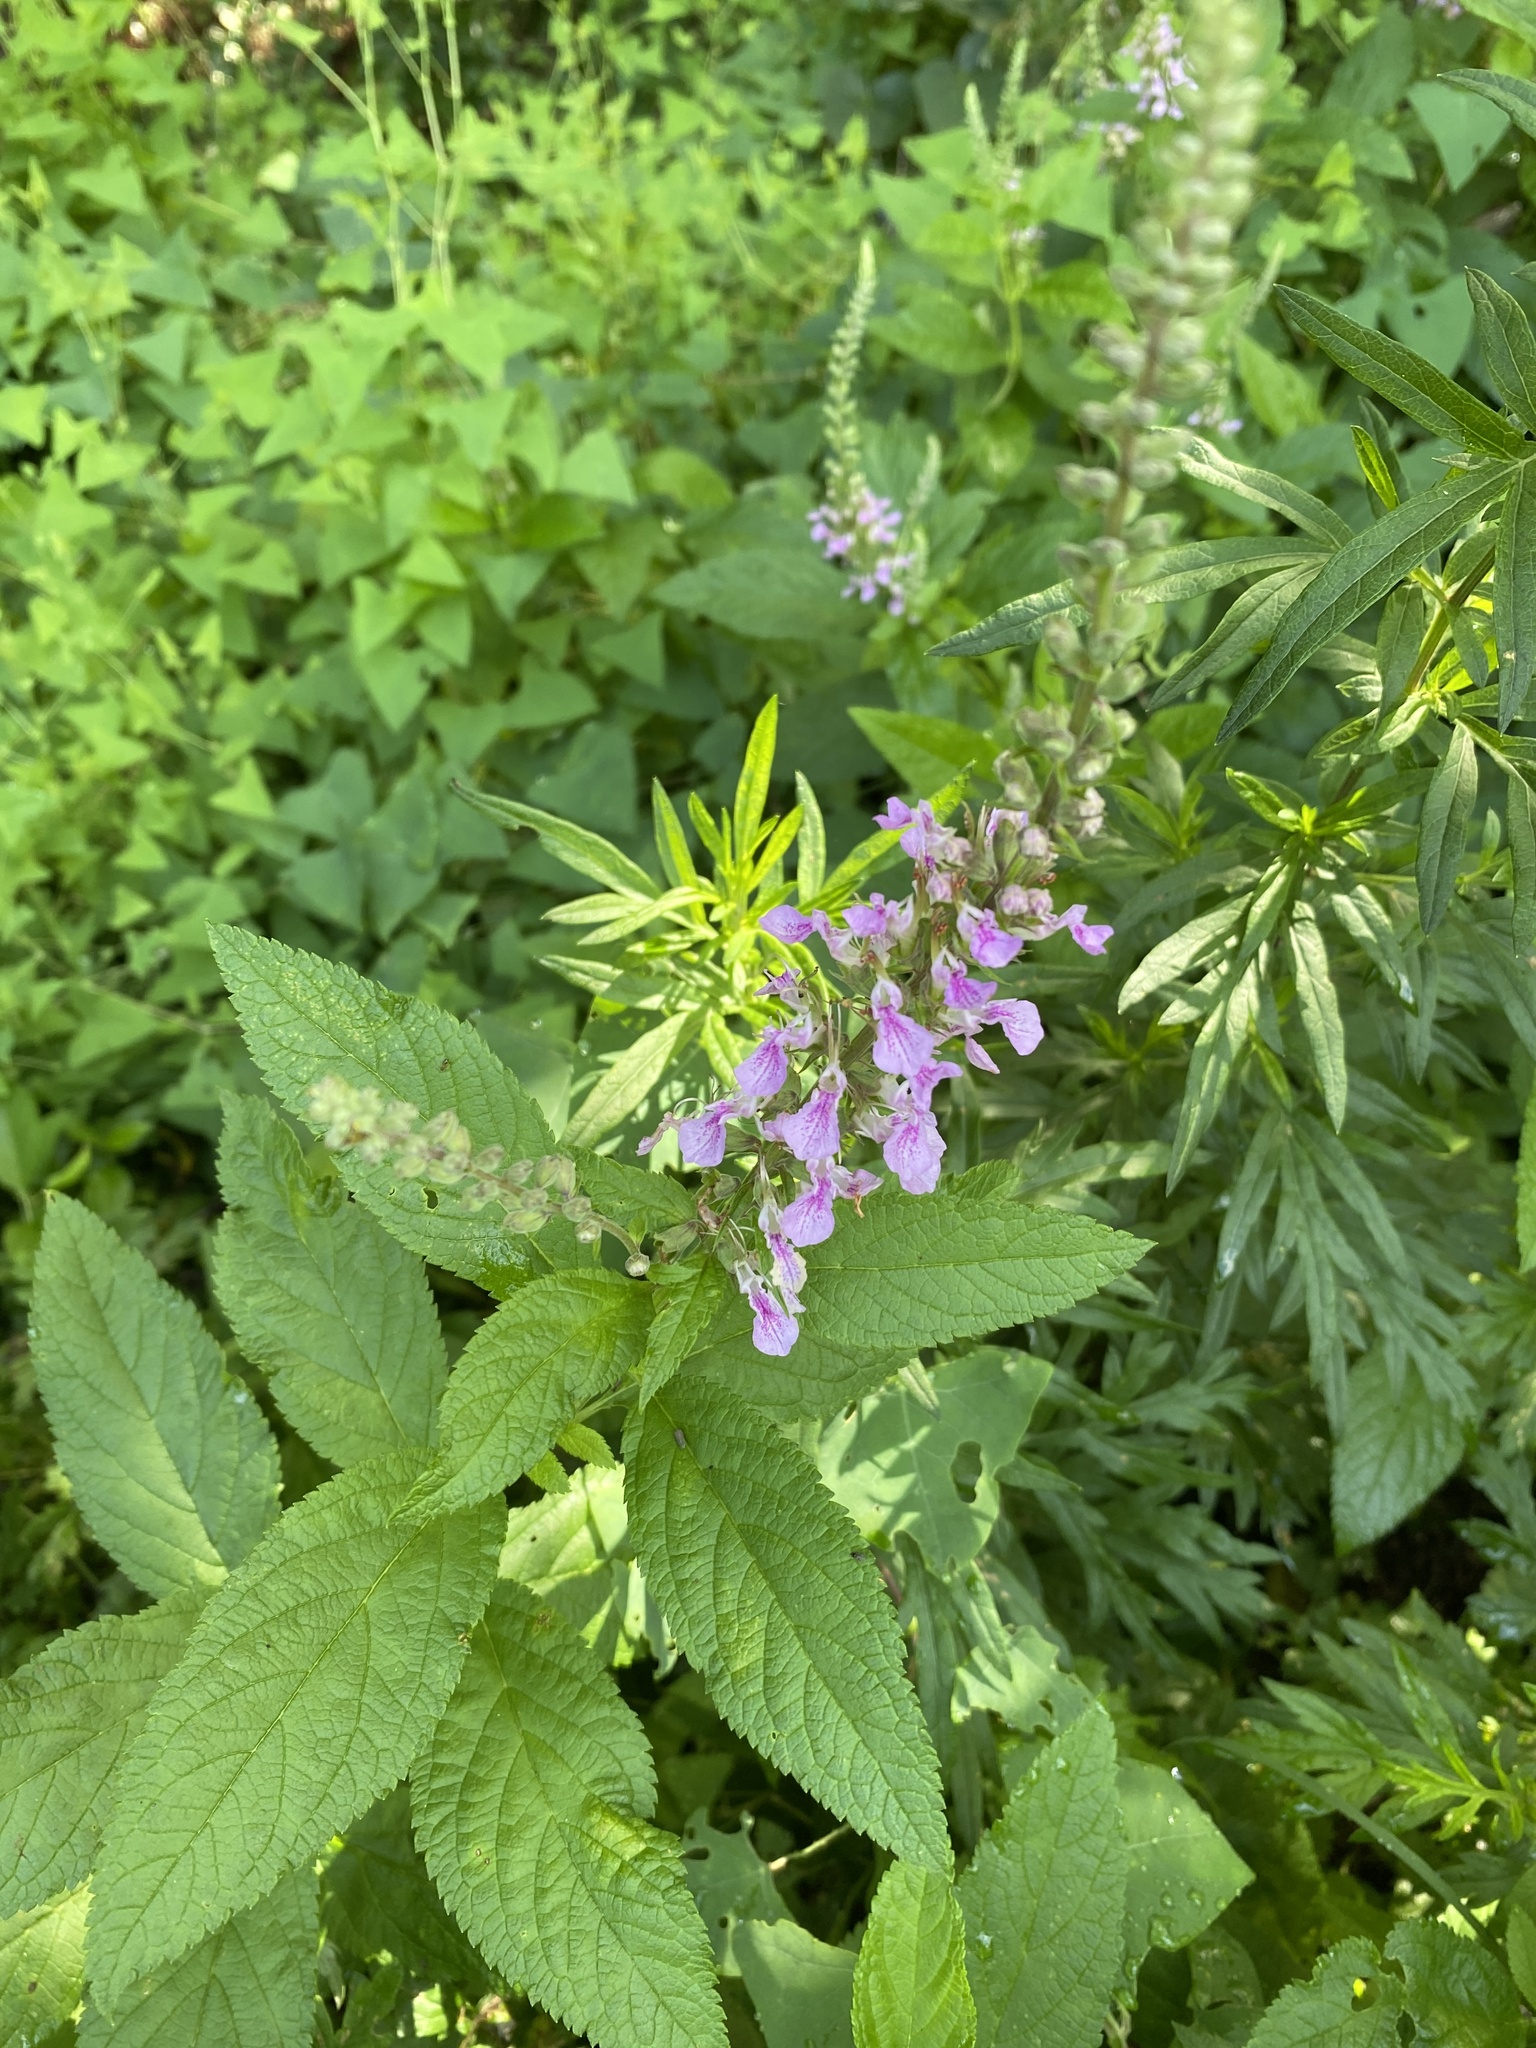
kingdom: Plantae
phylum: Tracheophyta
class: Magnoliopsida
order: Lamiales
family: Lamiaceae
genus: Teucrium
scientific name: Teucrium canadense
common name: American germander
